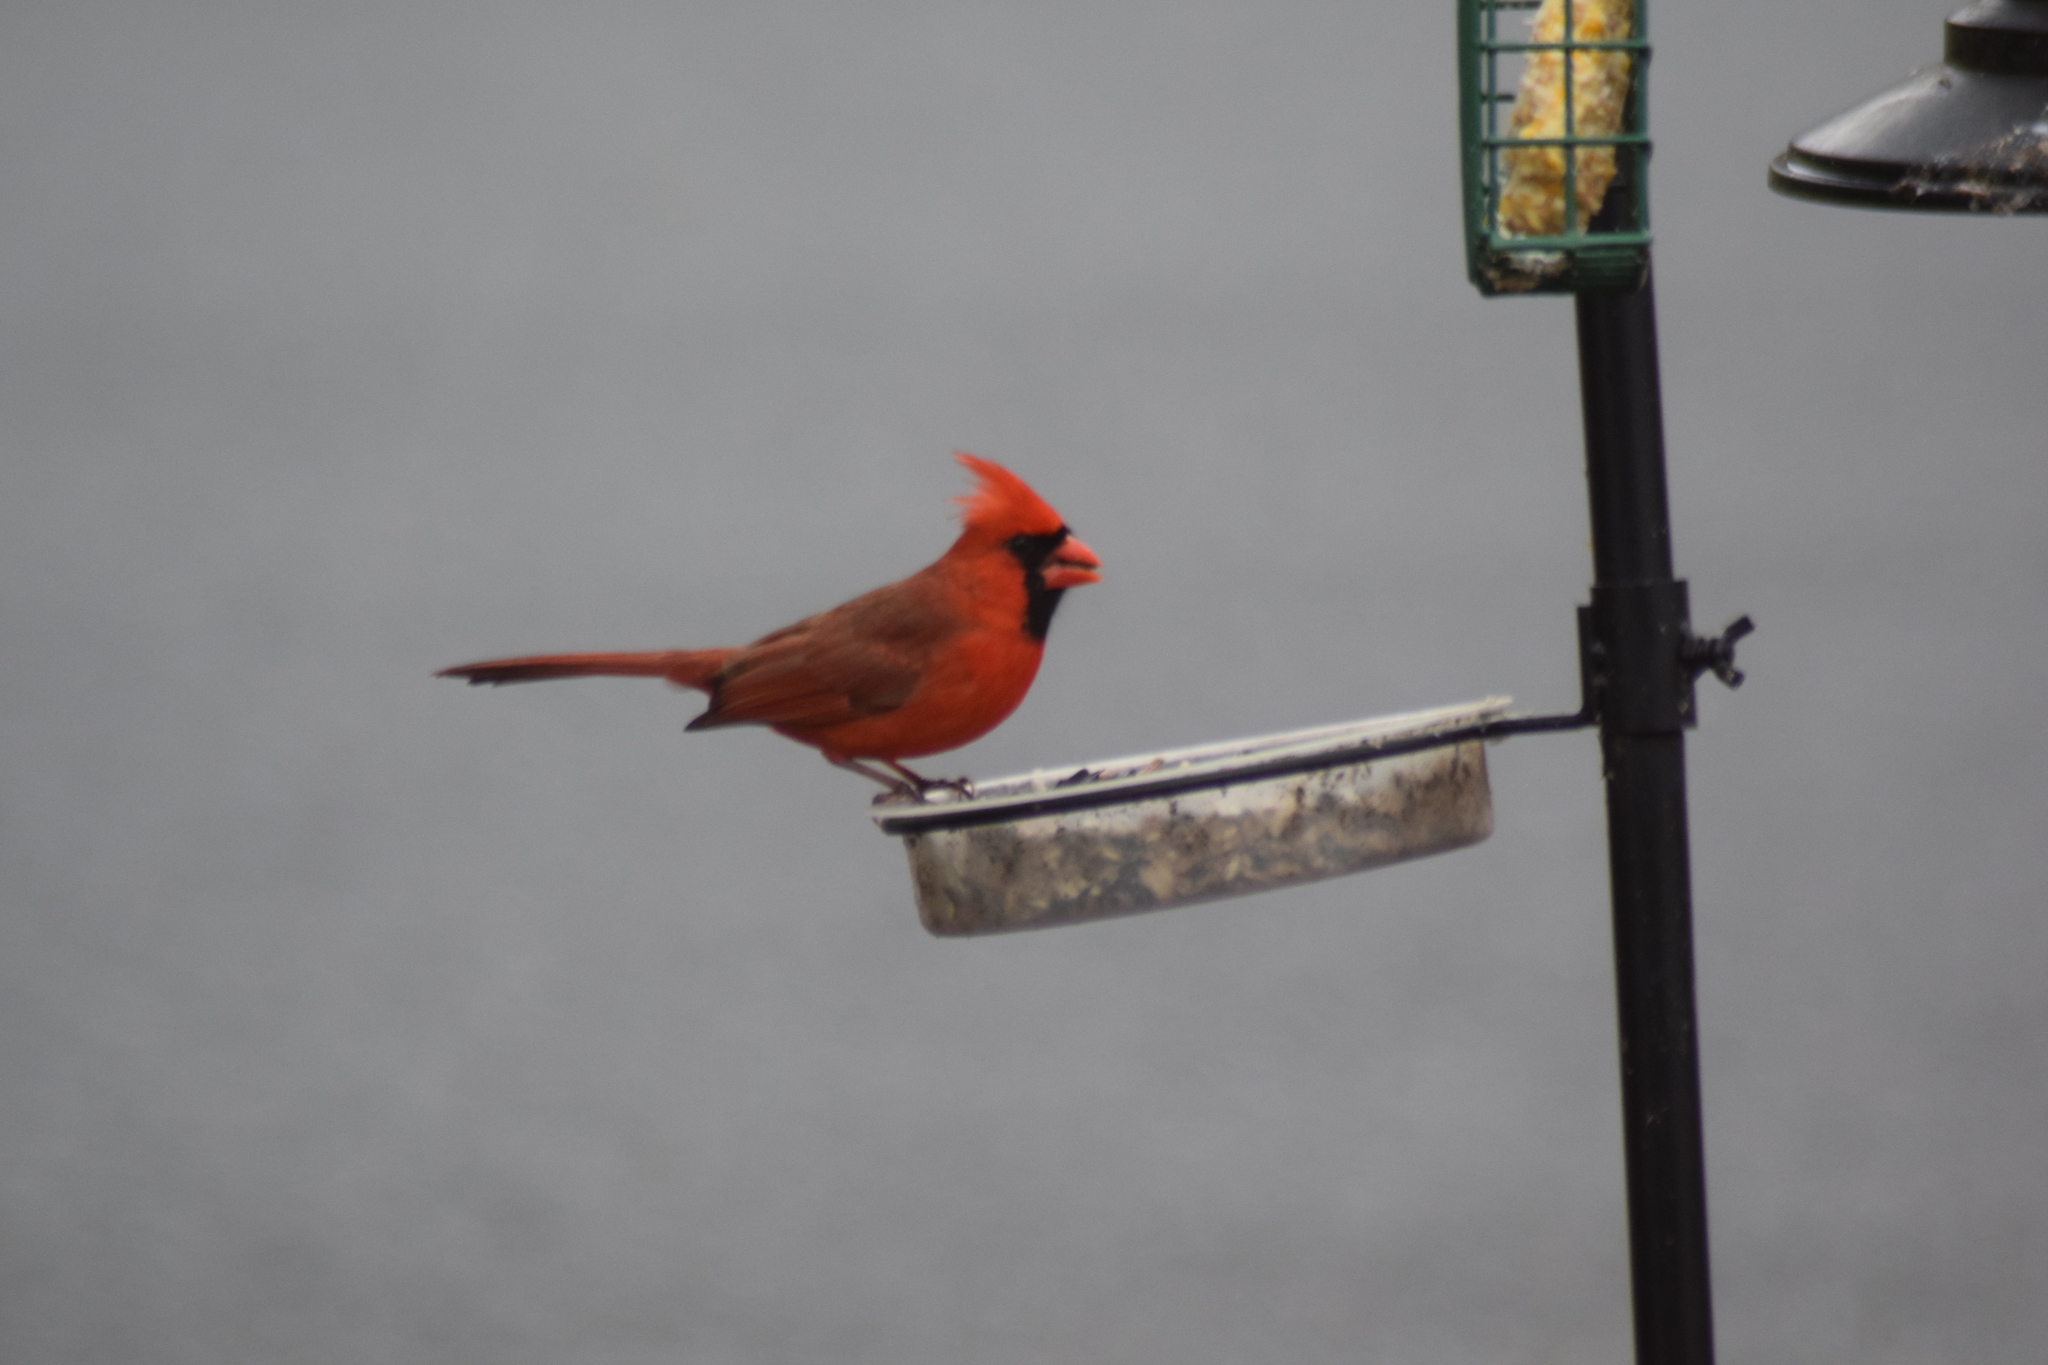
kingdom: Animalia
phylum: Chordata
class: Aves
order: Passeriformes
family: Cardinalidae
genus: Cardinalis
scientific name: Cardinalis cardinalis
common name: Northern cardinal
